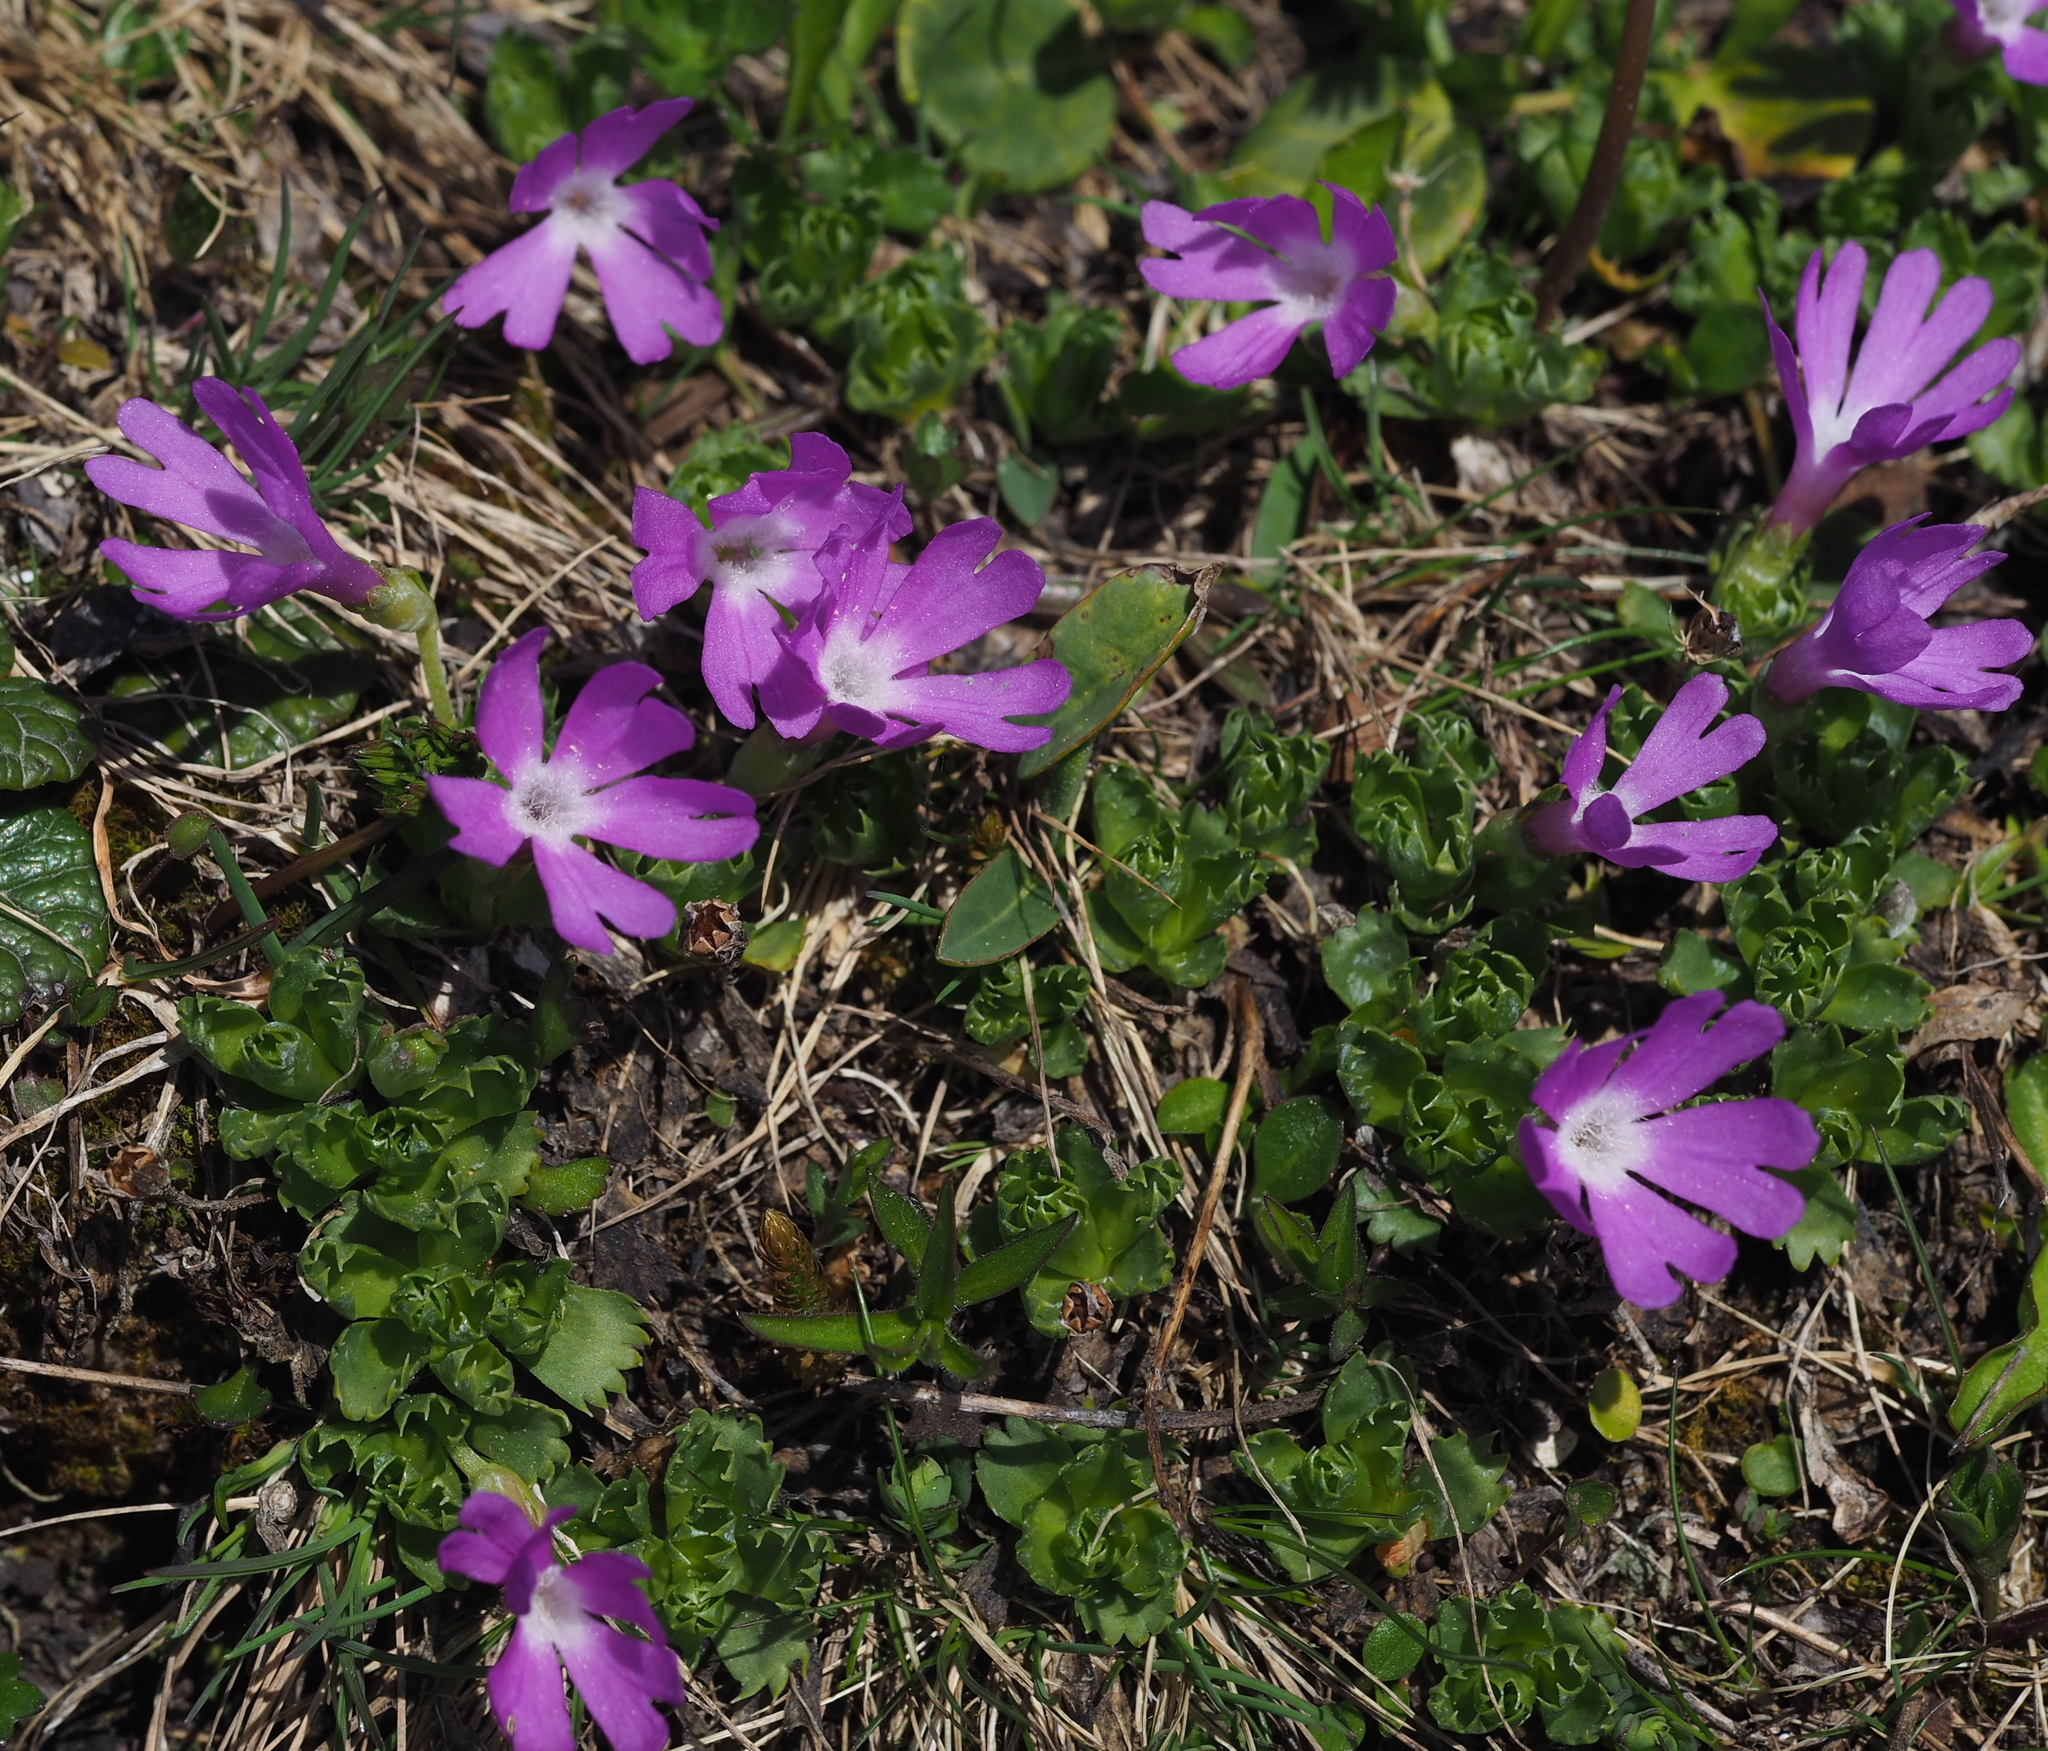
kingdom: Plantae
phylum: Tracheophyta
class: Magnoliopsida
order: Ericales
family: Primulaceae
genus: Primula
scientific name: Primula minima
